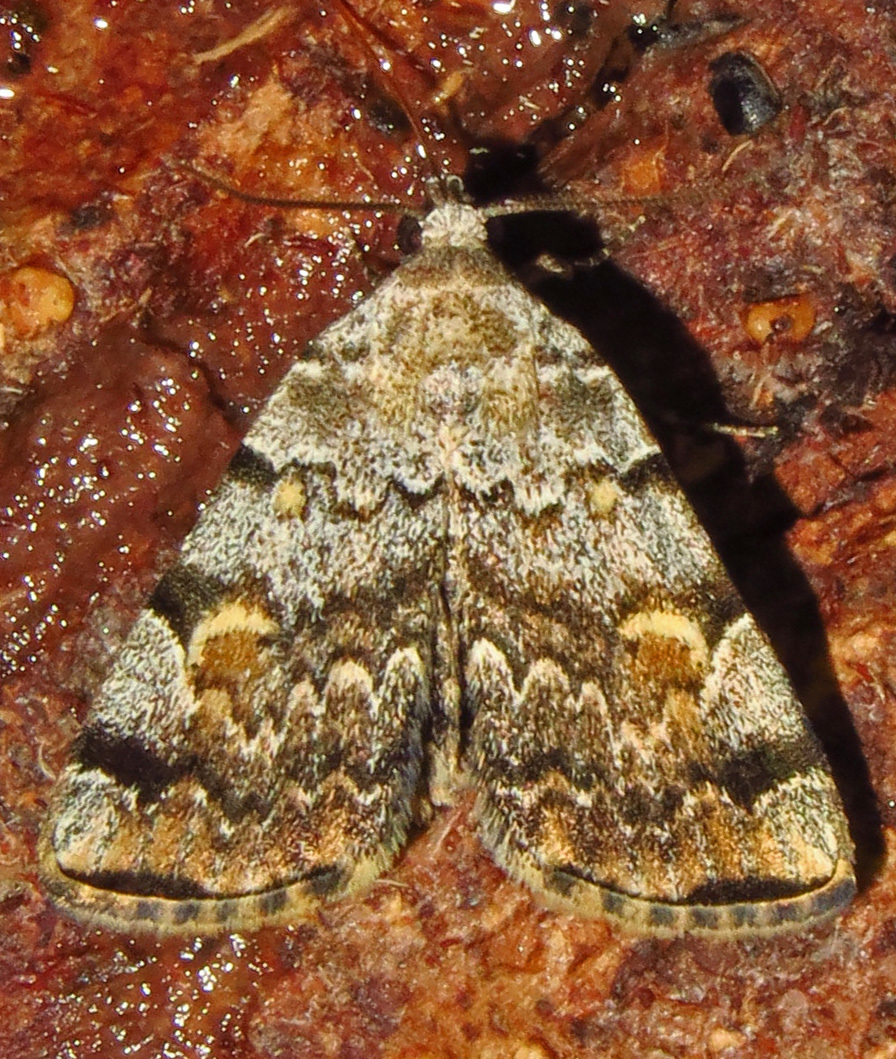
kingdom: Animalia
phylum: Arthropoda
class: Insecta
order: Lepidoptera
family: Erebidae
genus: Idia
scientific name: Idia americalis
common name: American idia moth
